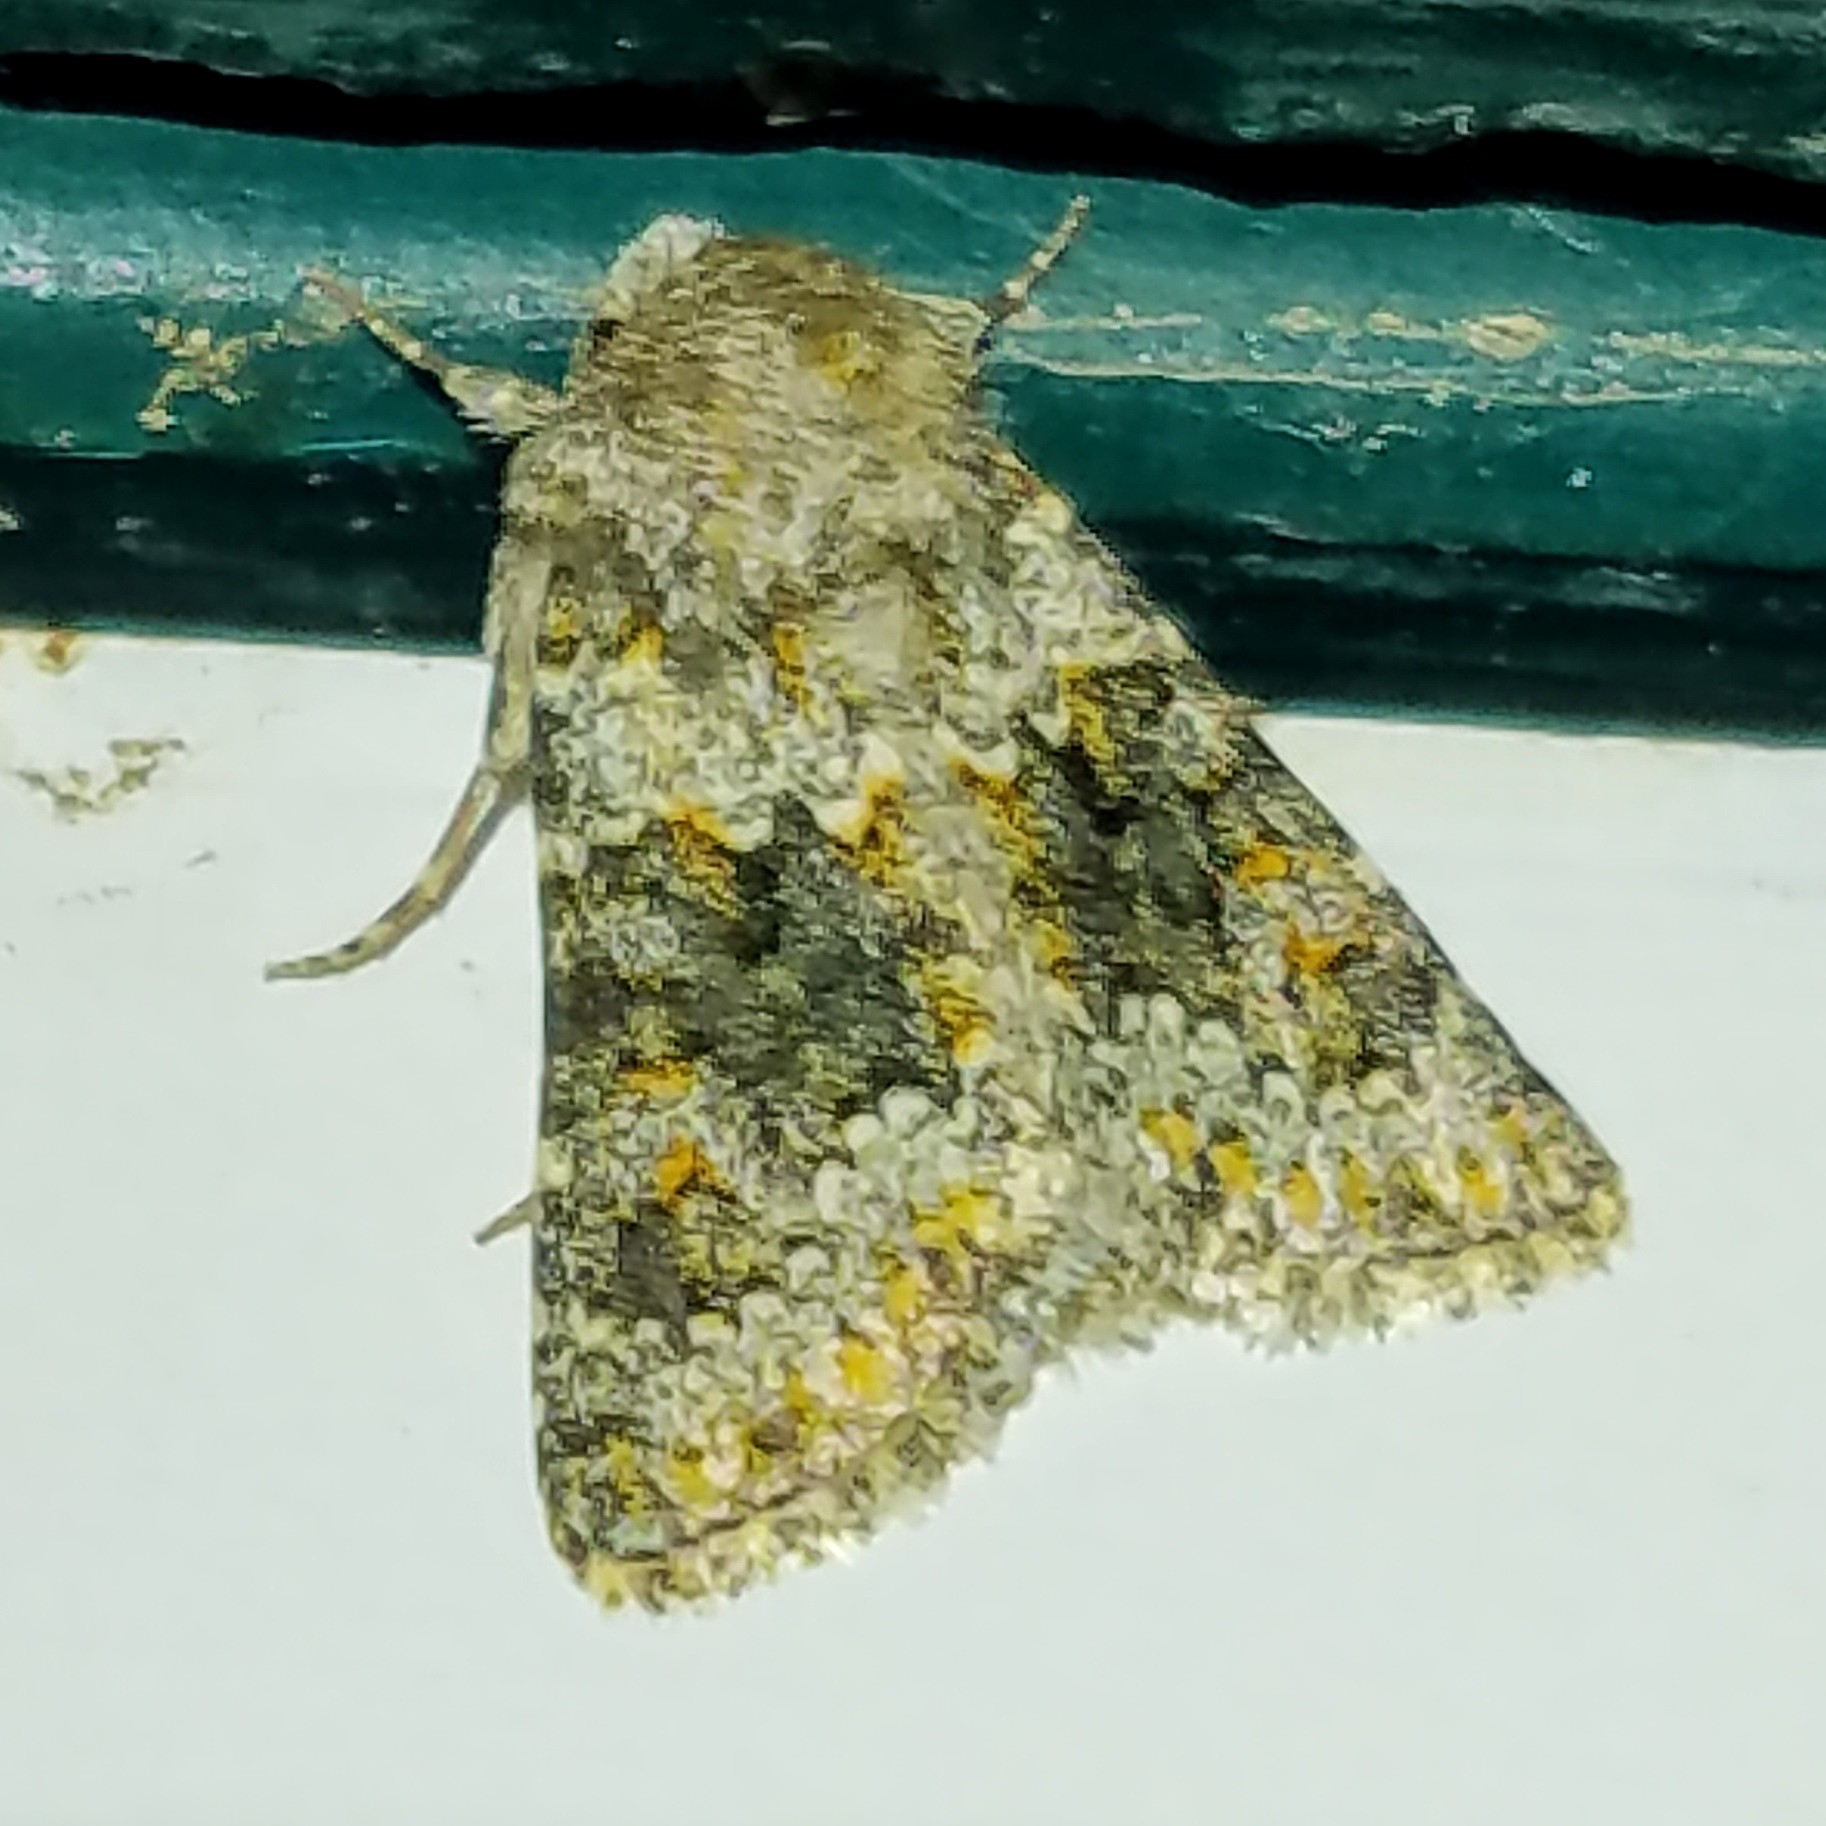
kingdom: Animalia
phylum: Arthropoda
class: Insecta
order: Lepidoptera
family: Noctuidae
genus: Hecatera
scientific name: Hecatera dysodea
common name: Small ranunculus
